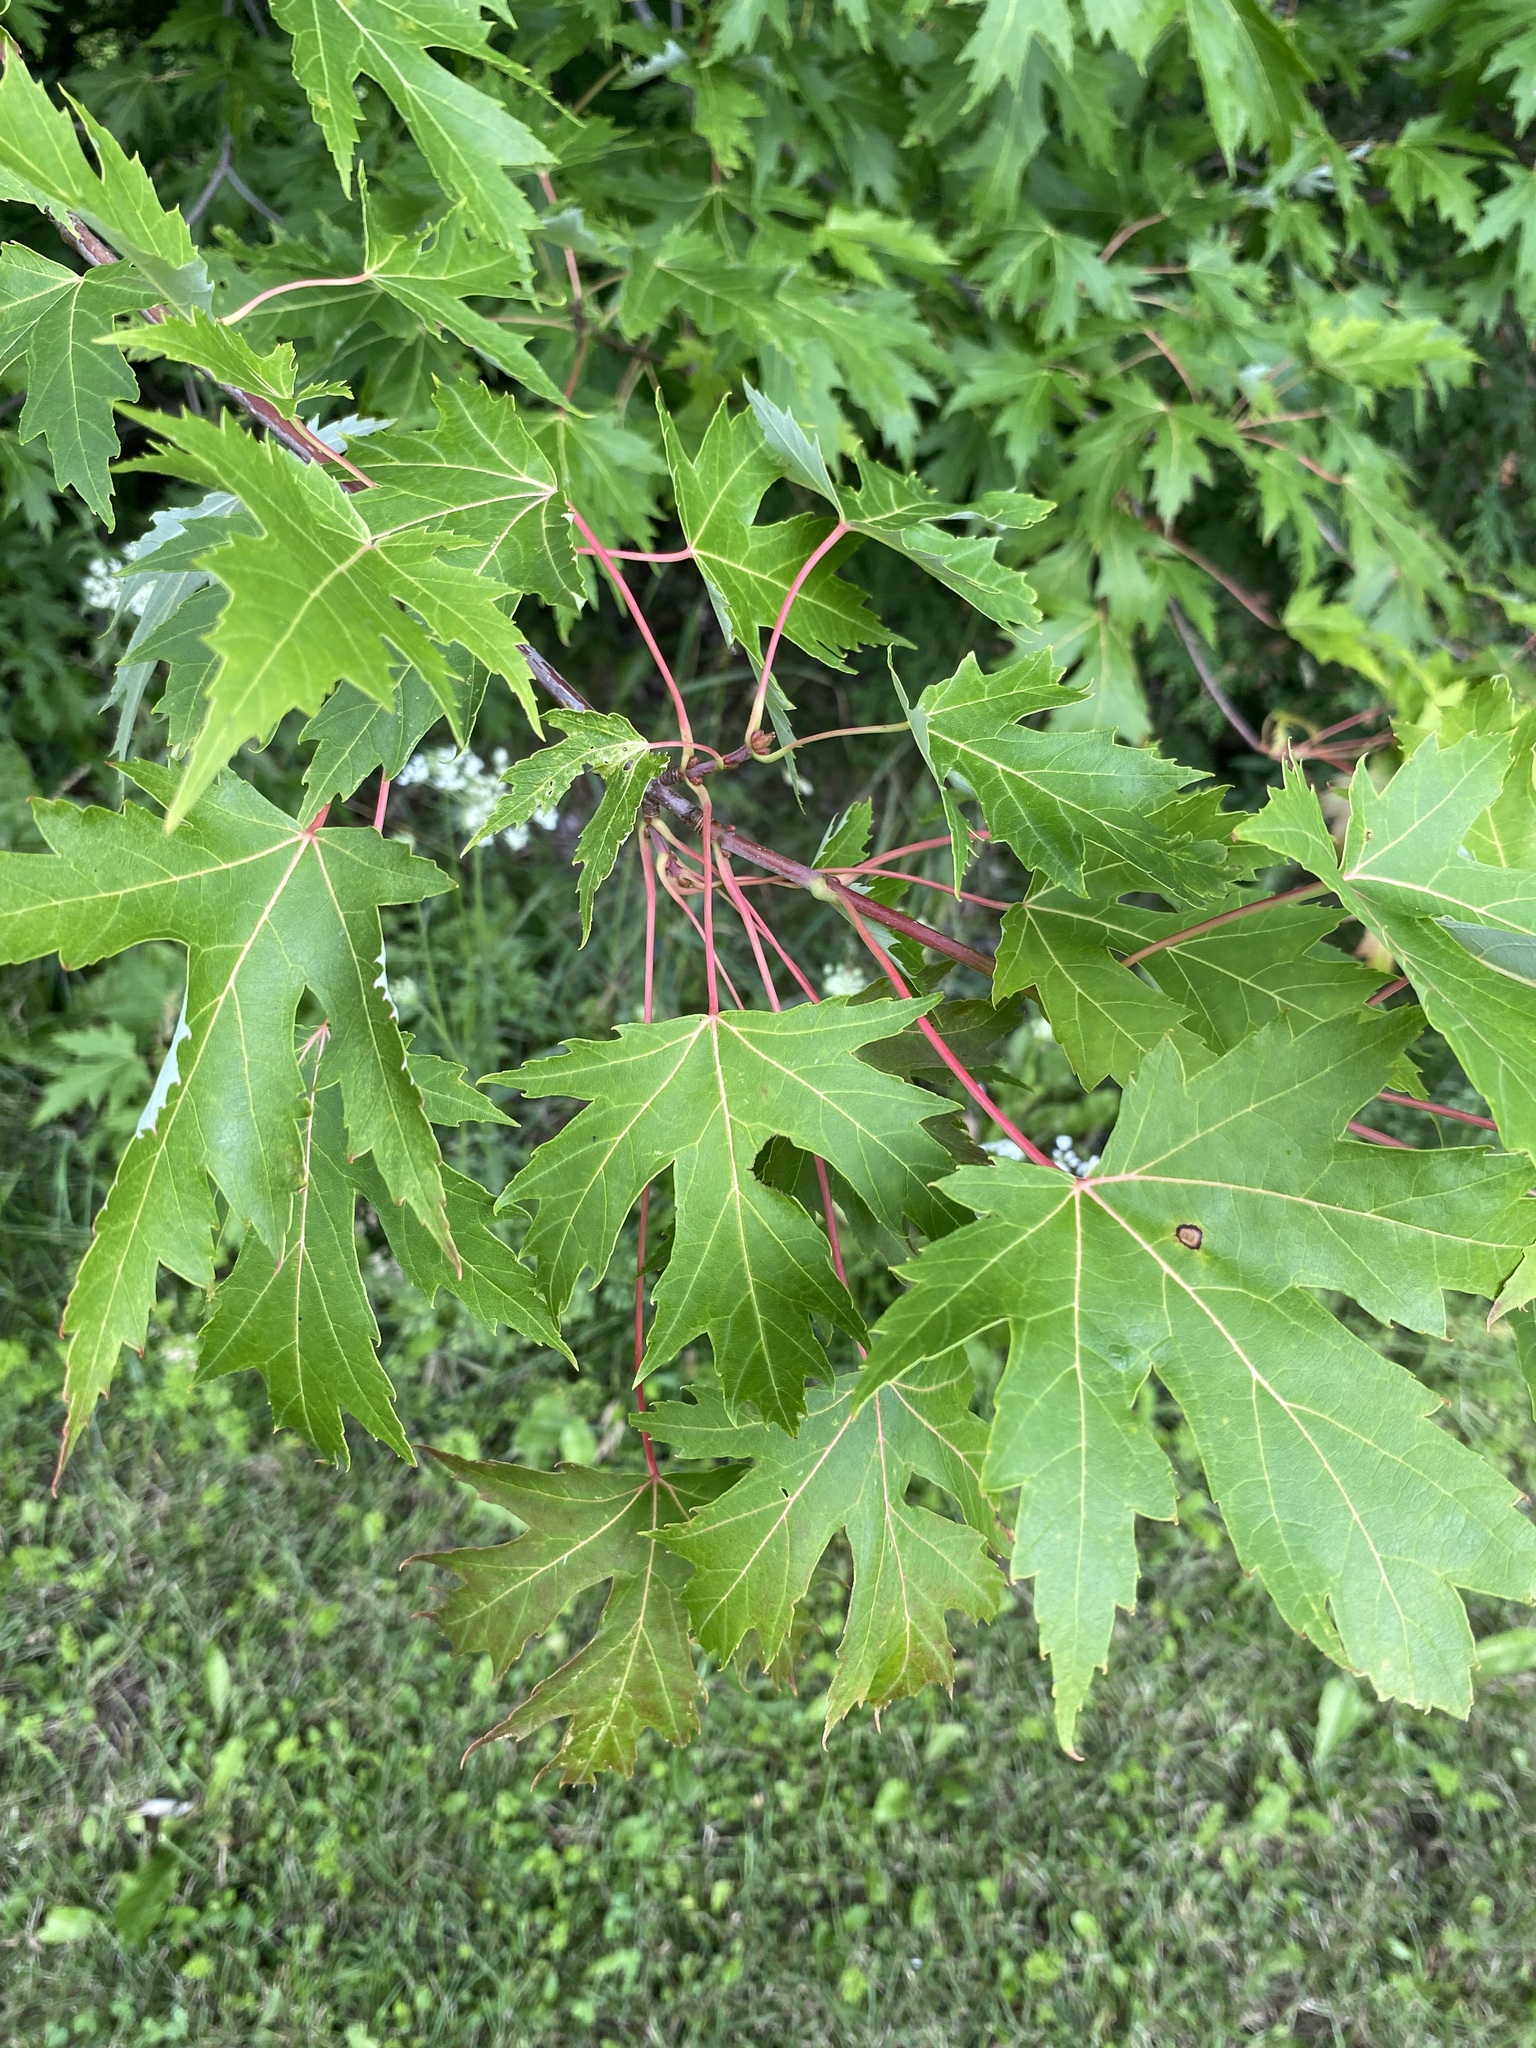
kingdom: Plantae
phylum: Tracheophyta
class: Magnoliopsida
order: Sapindales
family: Sapindaceae
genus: Acer
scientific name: Acer saccharinum
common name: Silver maple
